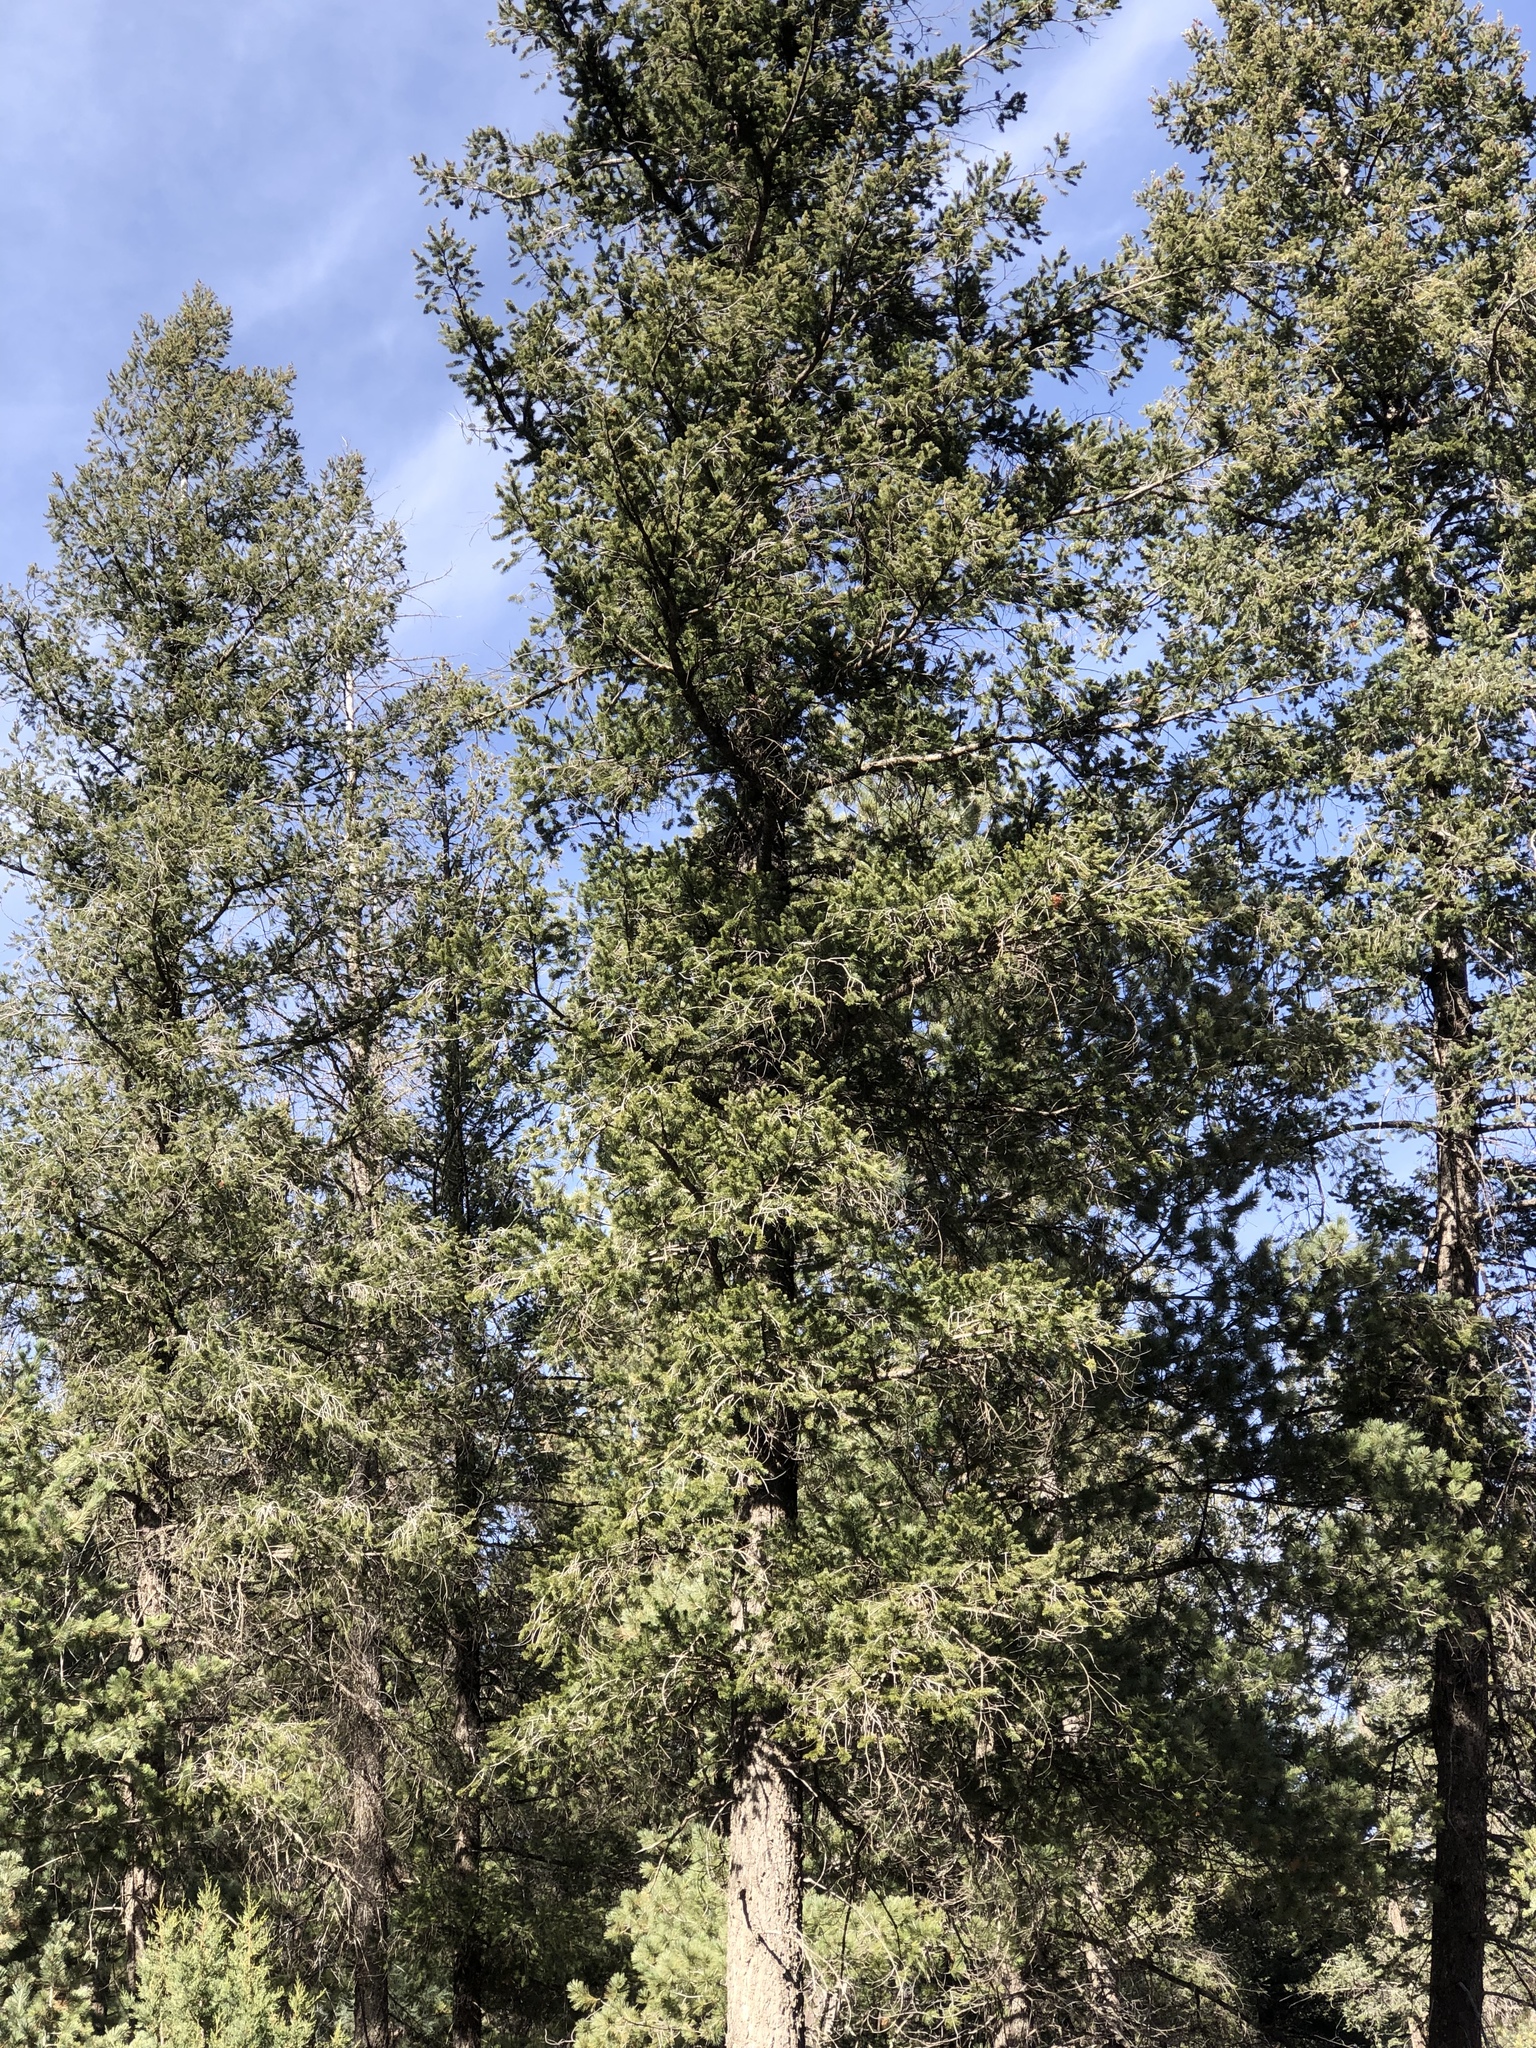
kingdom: Plantae
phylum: Tracheophyta
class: Pinopsida
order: Pinales
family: Pinaceae
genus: Pseudotsuga
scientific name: Pseudotsuga menziesii
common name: Douglas fir
